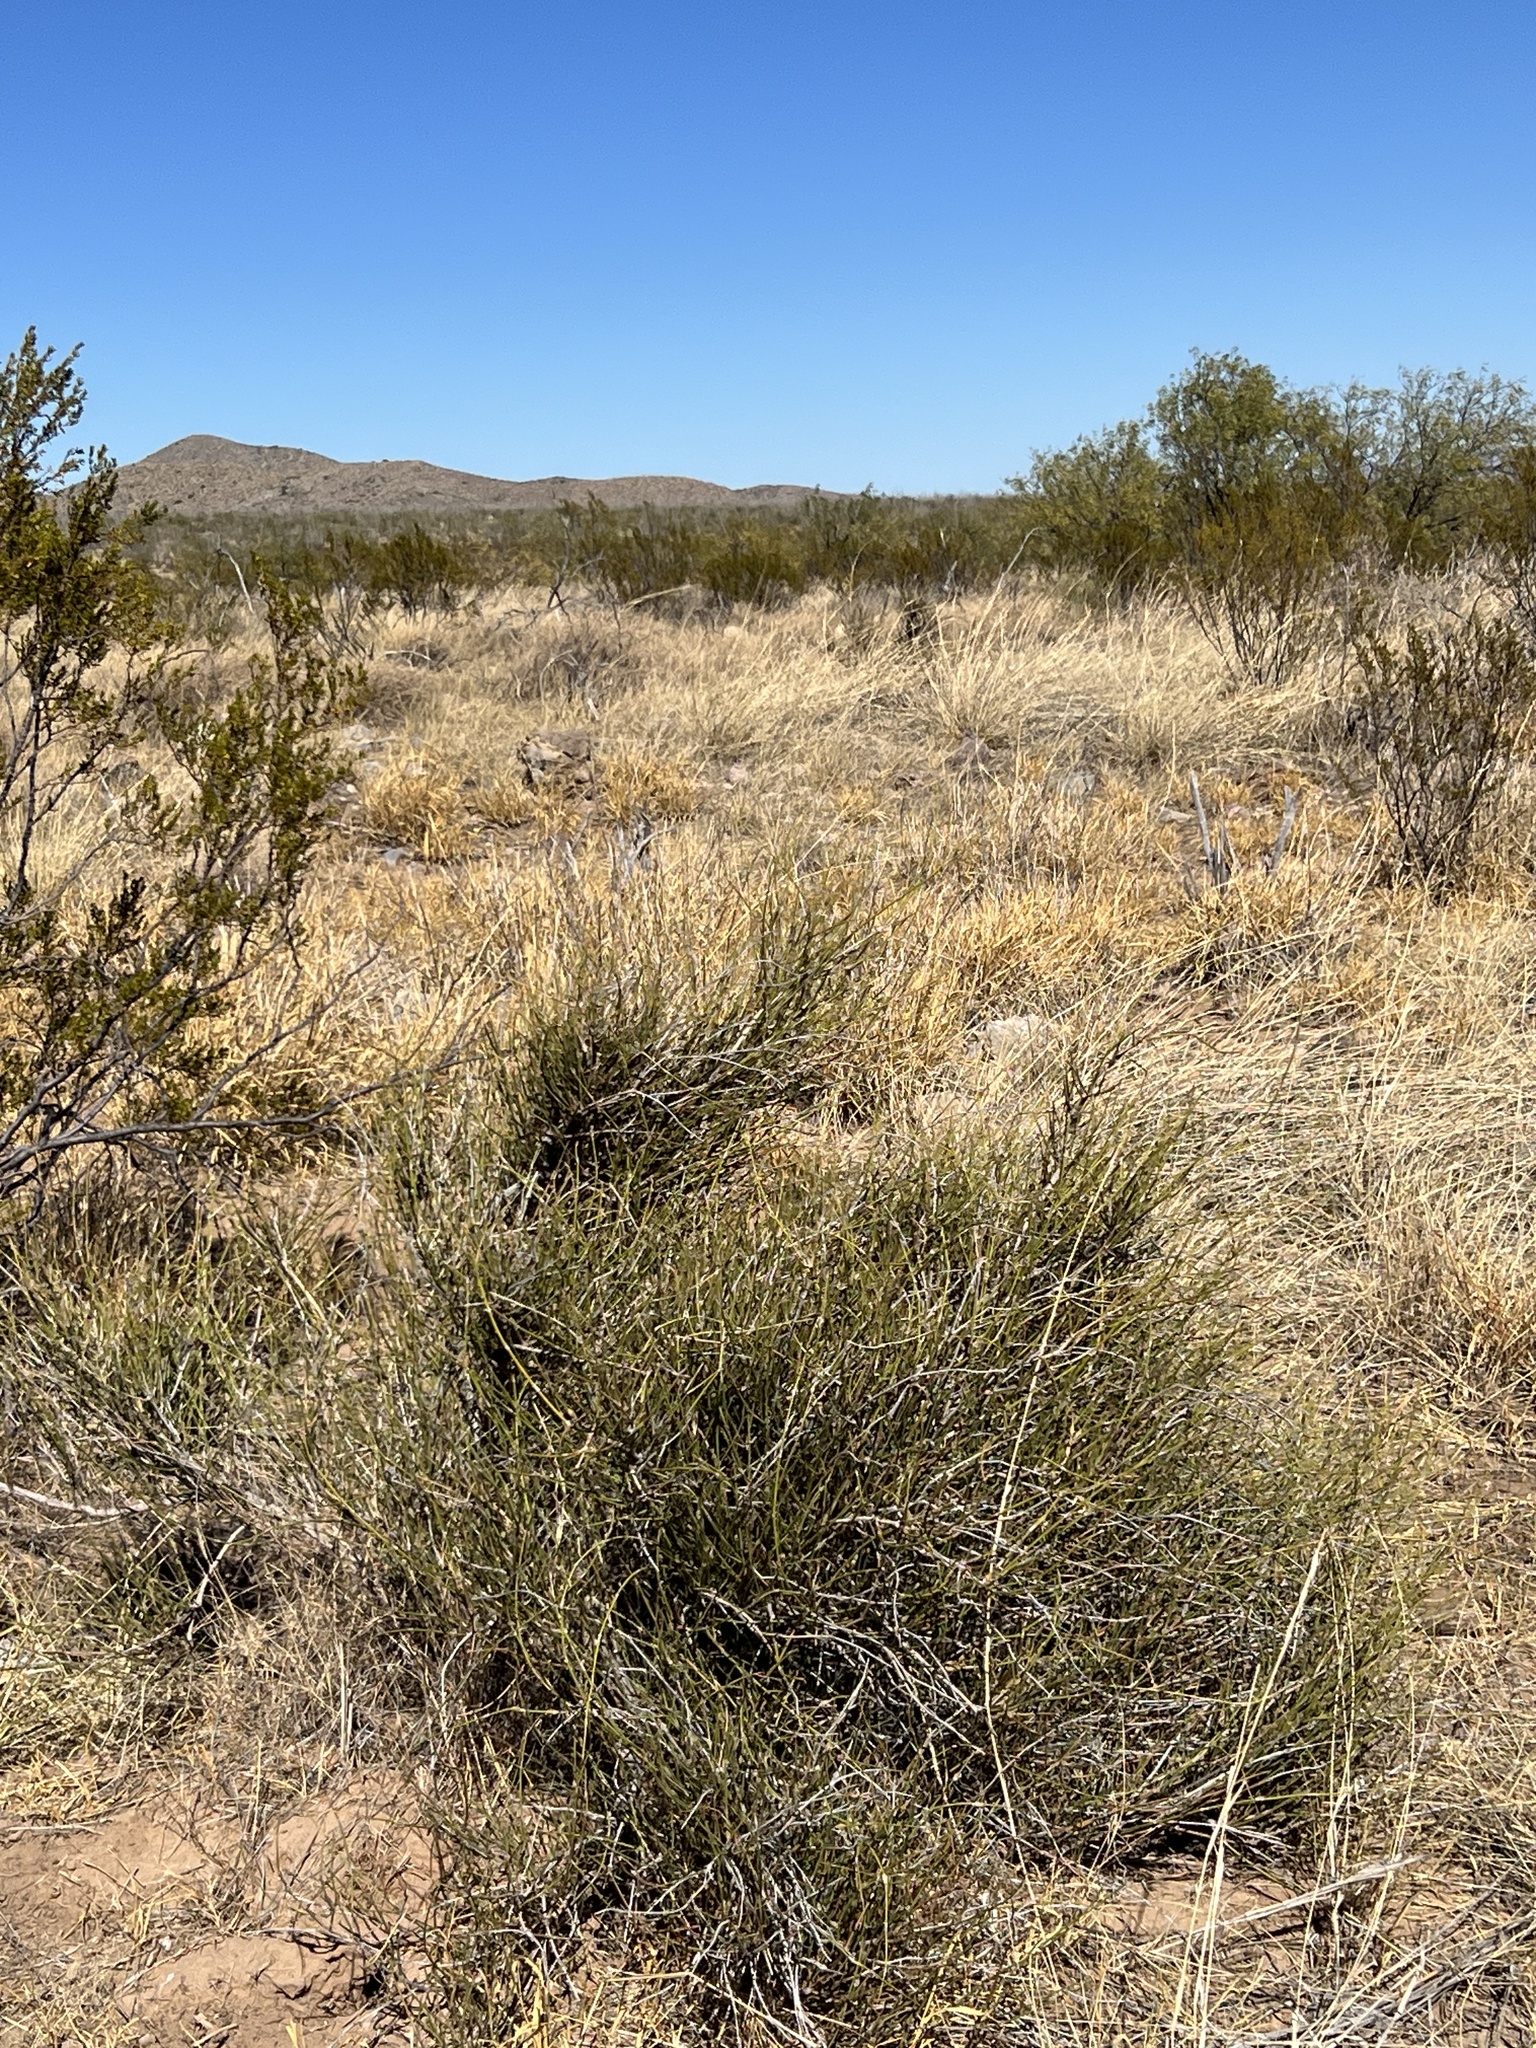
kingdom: Plantae
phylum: Tracheophyta
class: Gnetopsida
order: Ephedrales
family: Ephedraceae
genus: Ephedra
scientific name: Ephedra trifurca
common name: Mexican-tea
